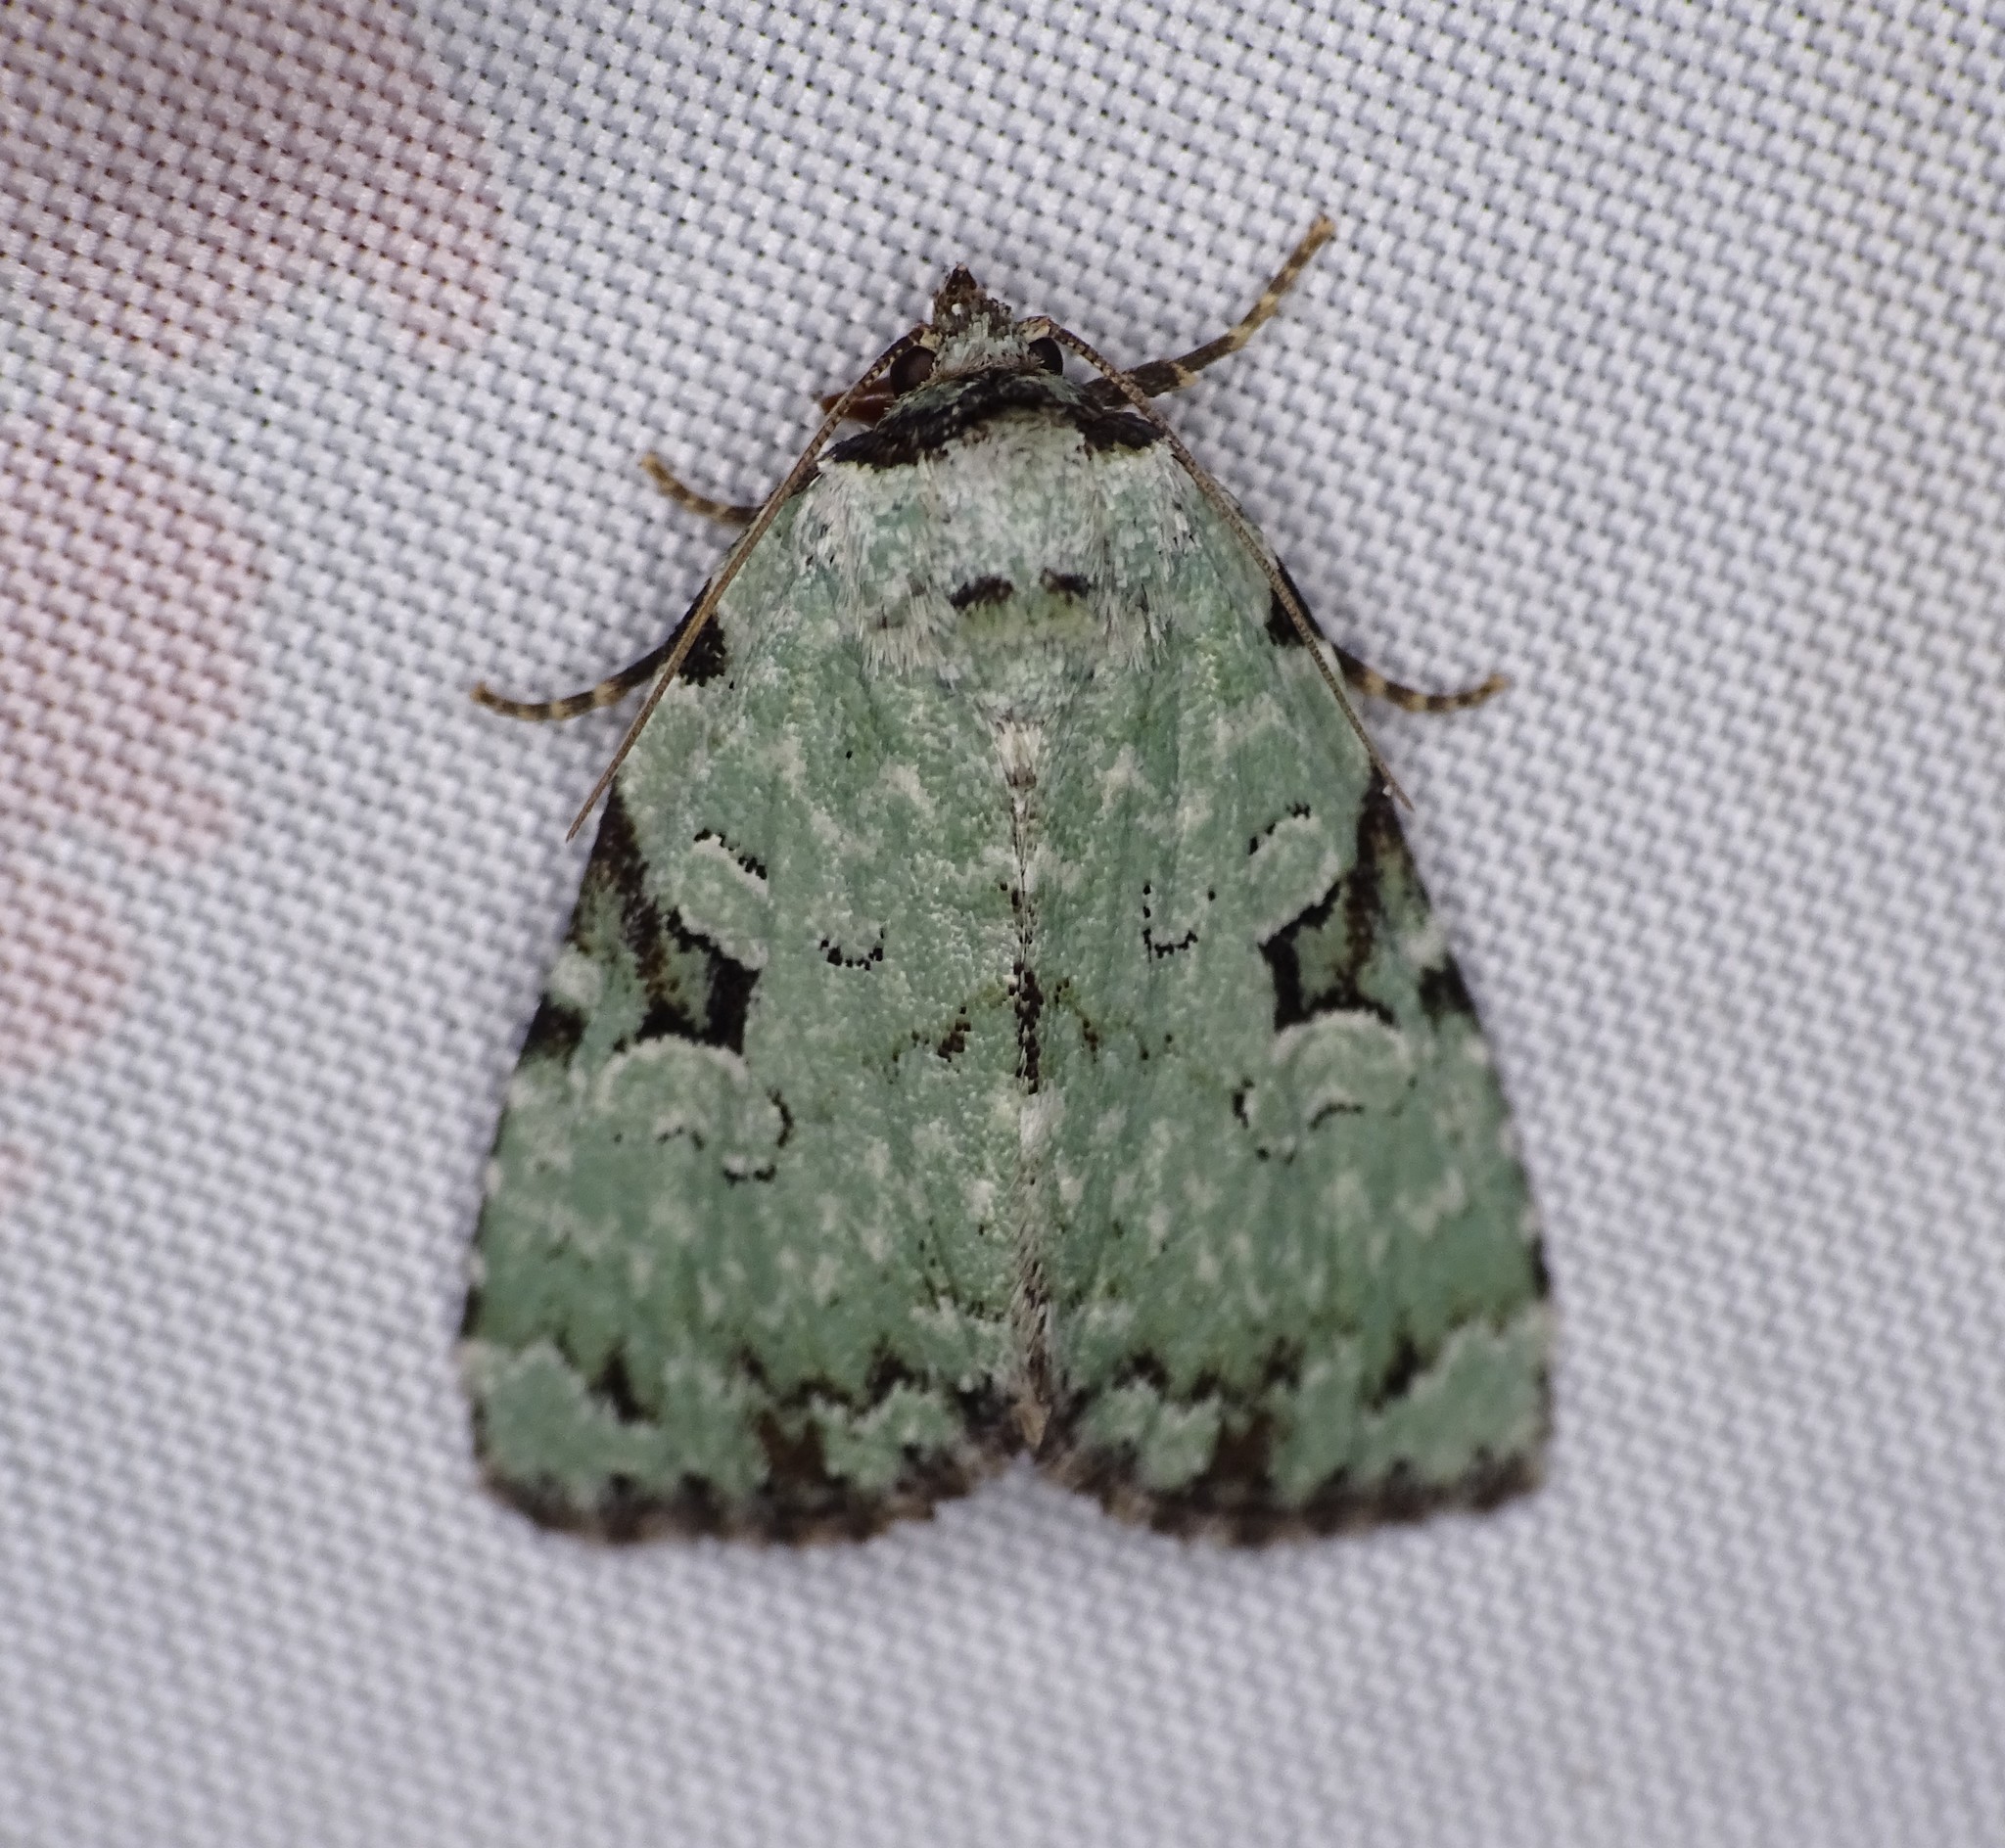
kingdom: Animalia
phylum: Arthropoda
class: Insecta
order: Lepidoptera
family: Noctuidae
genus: Leuconycta
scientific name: Leuconycta diphteroides
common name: Green leuconycta moth
